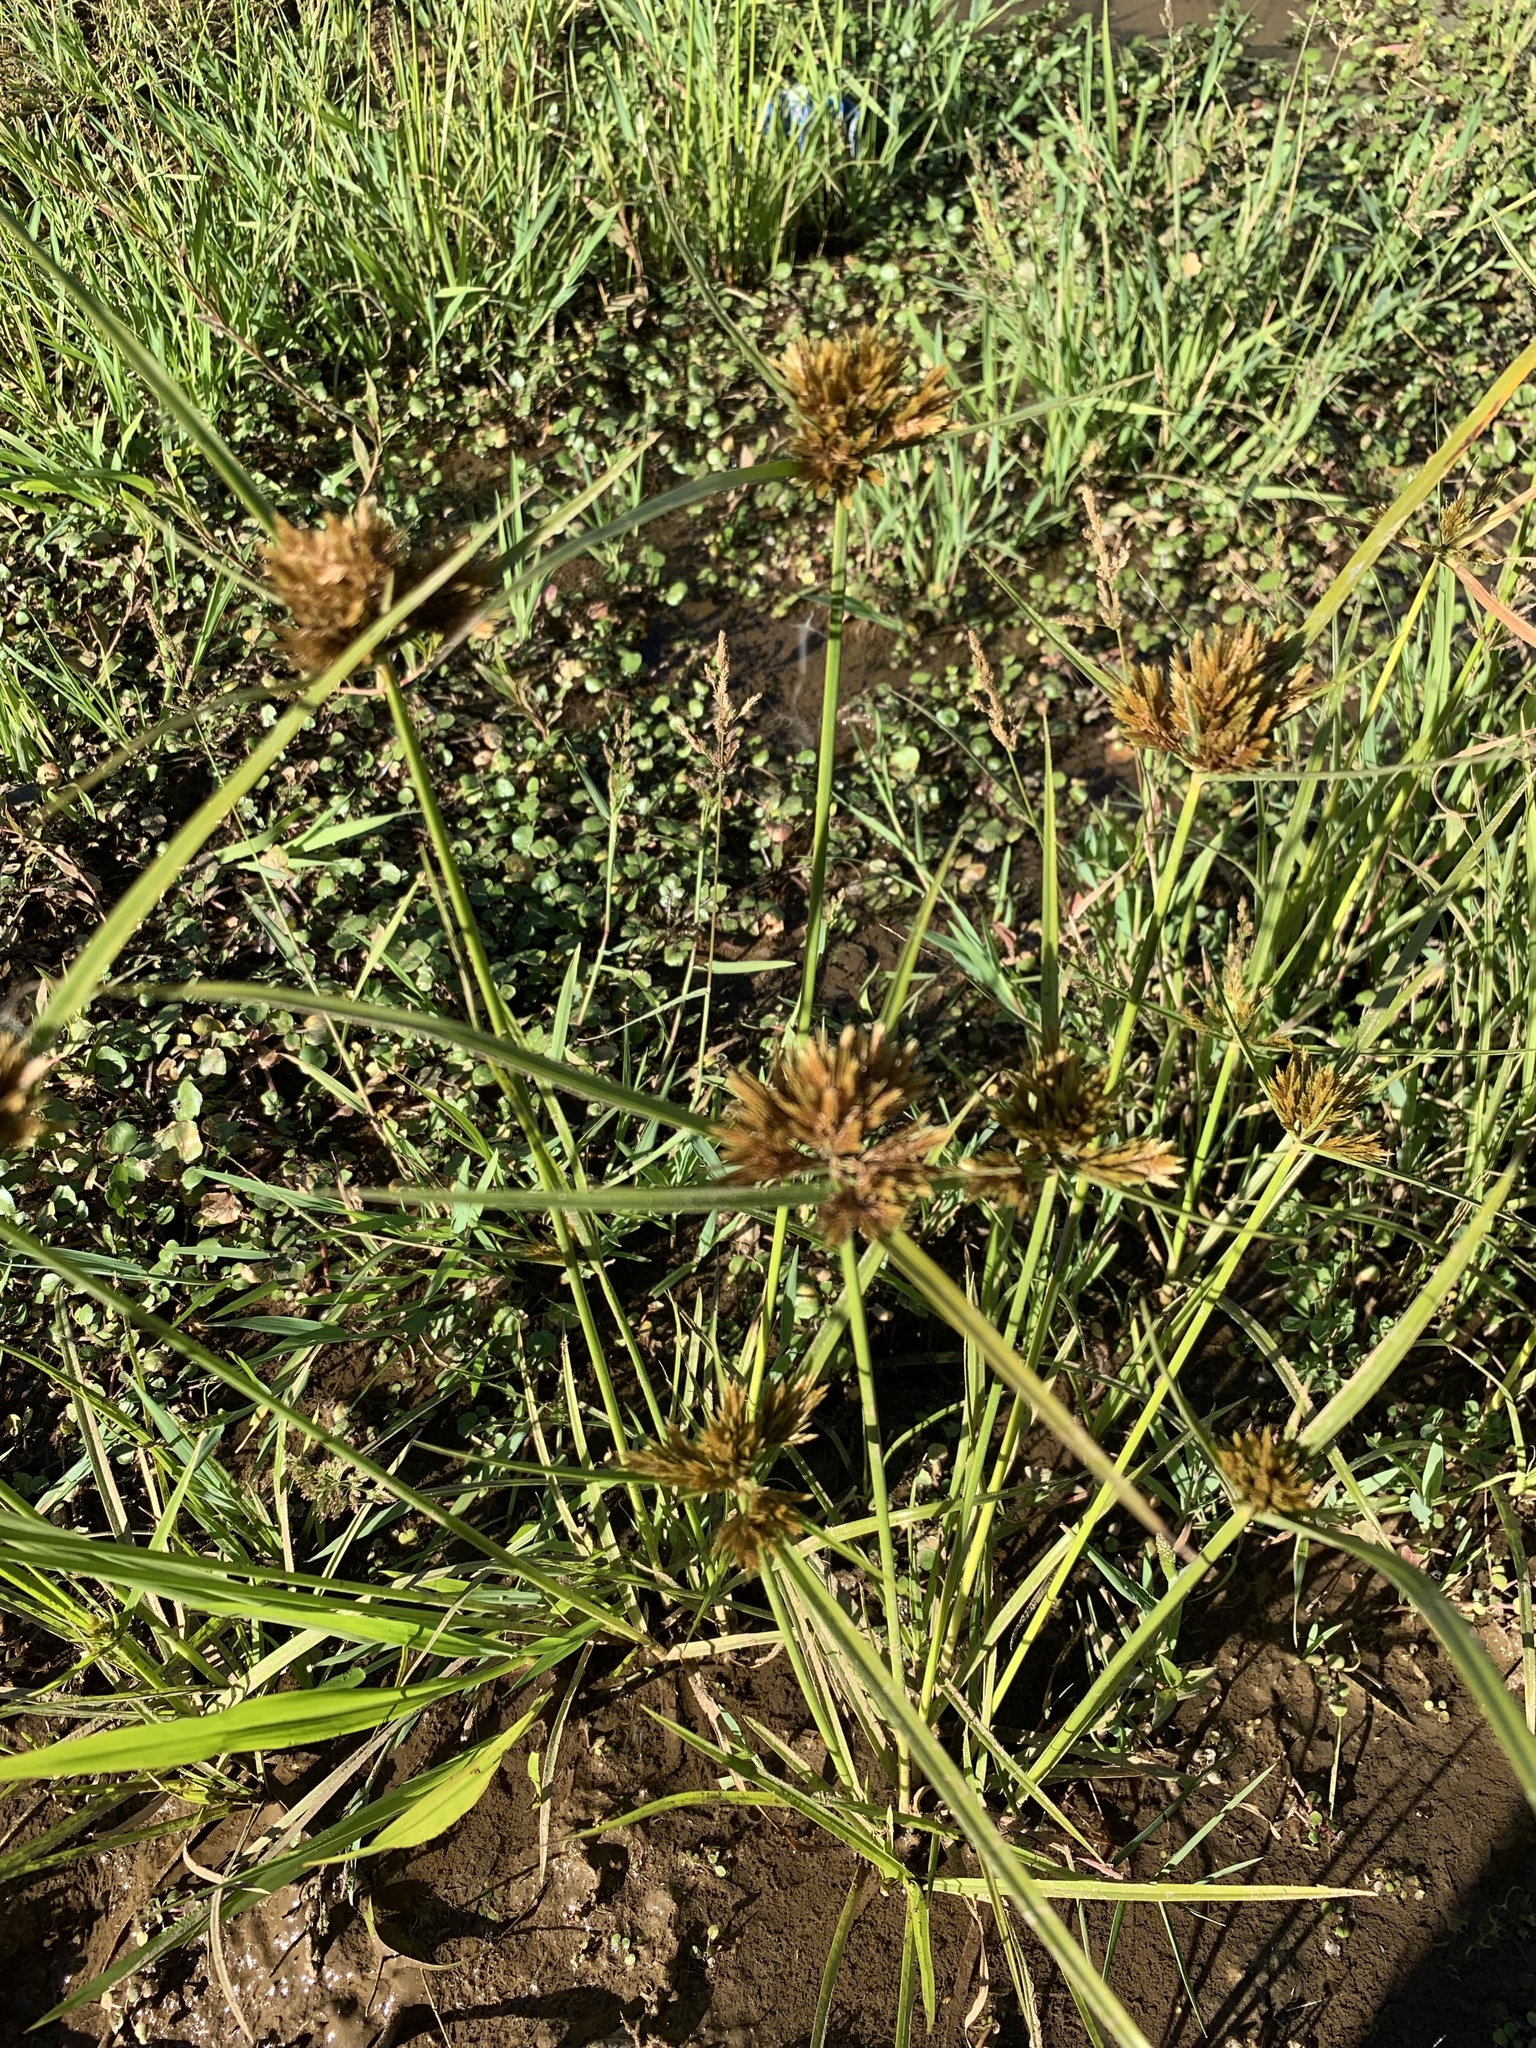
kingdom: Plantae
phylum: Tracheophyta
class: Liliopsida
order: Poales
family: Cyperaceae
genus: Cyperus
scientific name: Cyperus polystachyos
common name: Bunchy flat sedge
